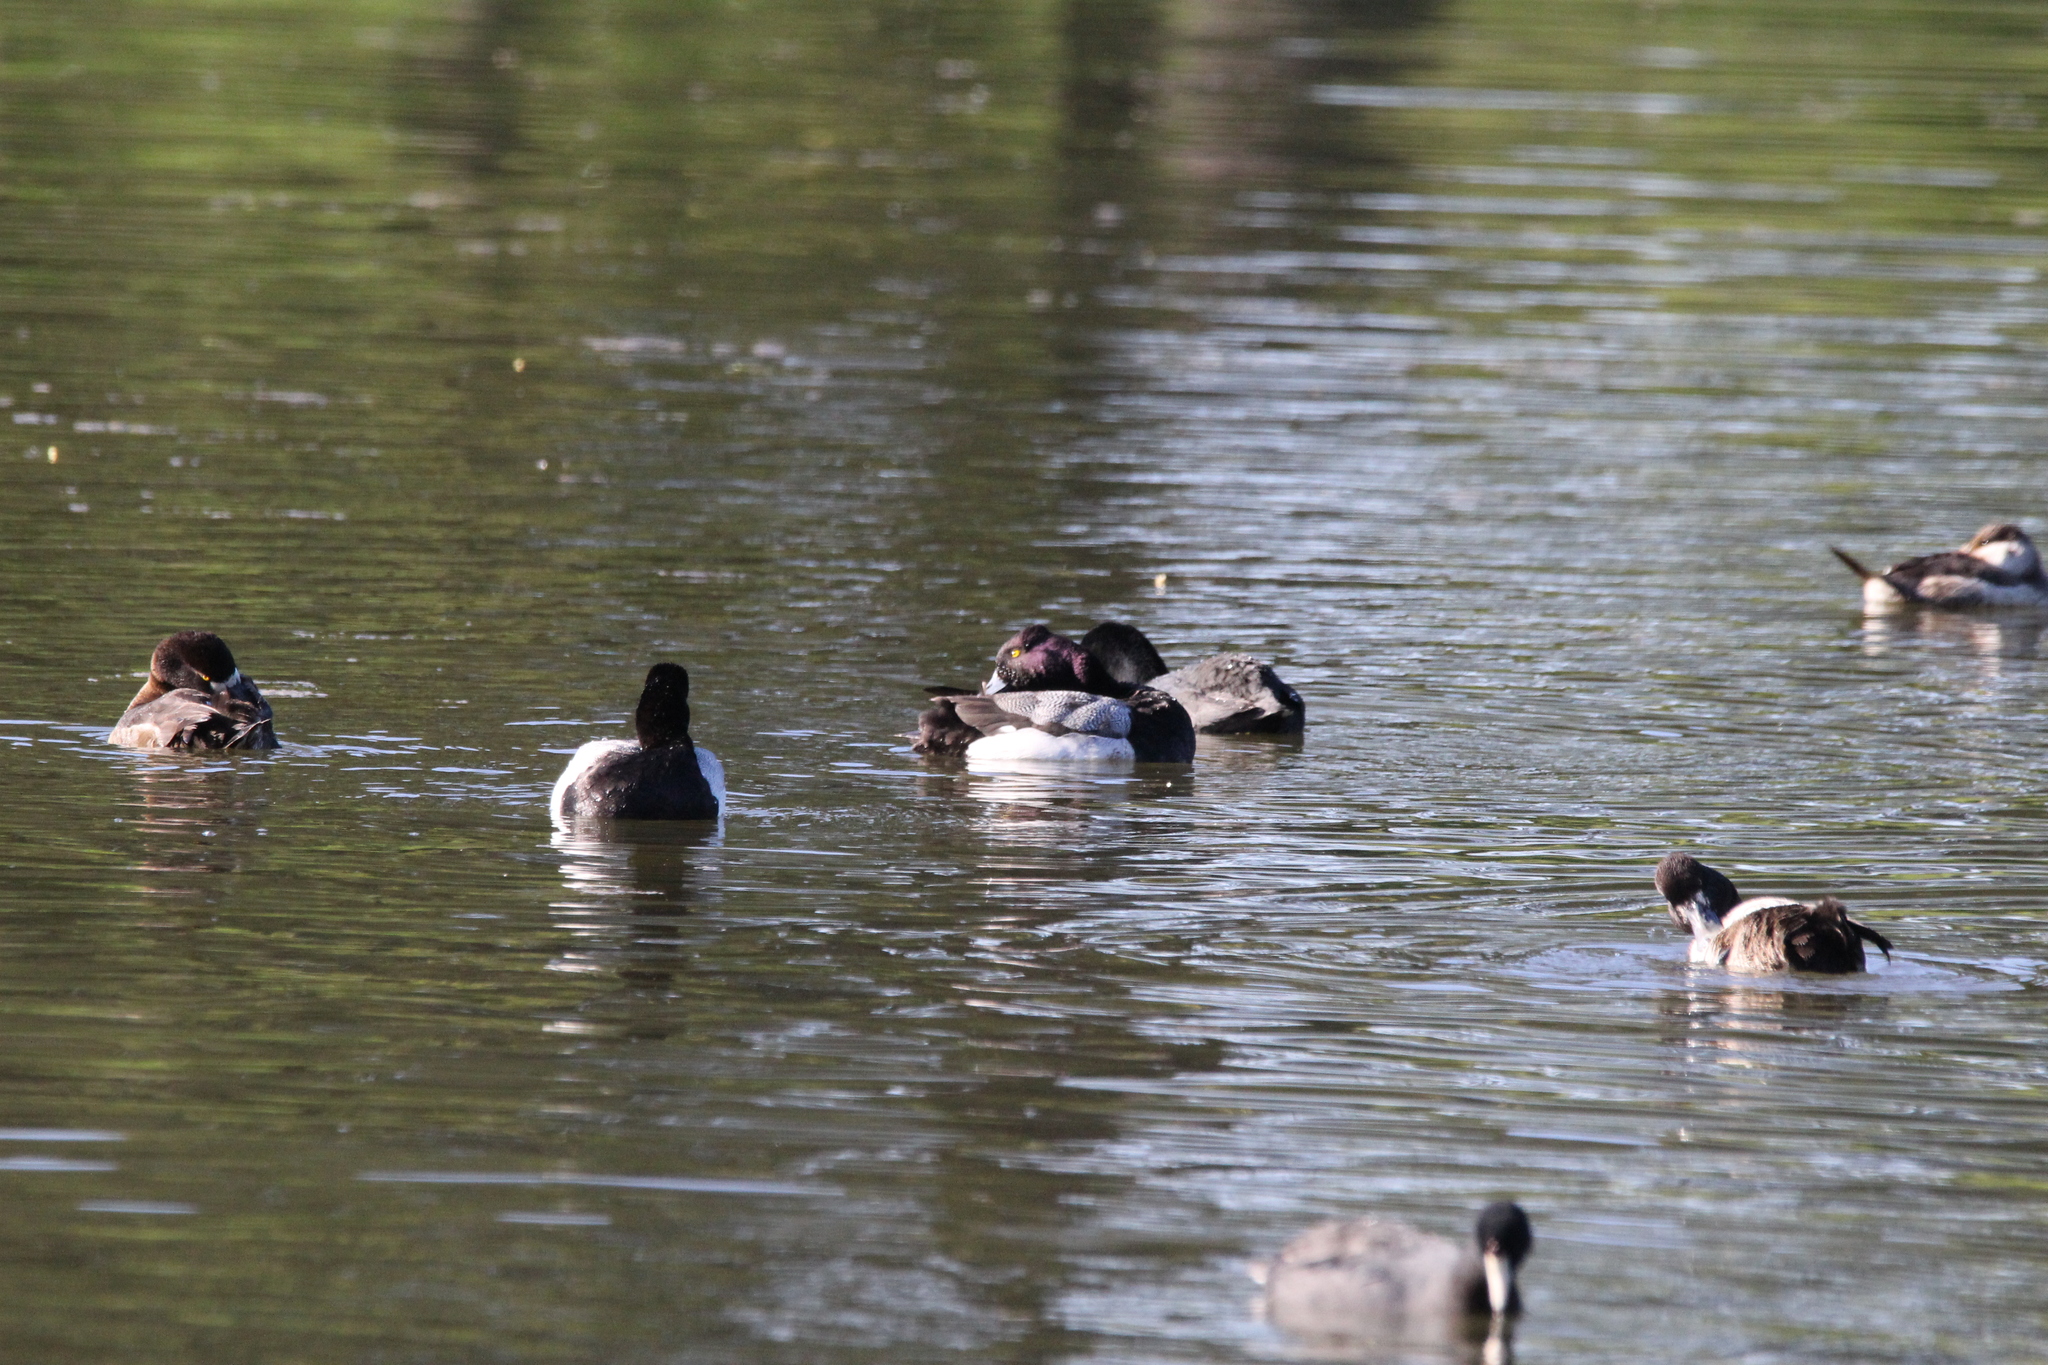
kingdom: Animalia
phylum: Chordata
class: Aves
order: Anseriformes
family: Anatidae
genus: Aythya
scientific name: Aythya affinis
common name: Lesser scaup
